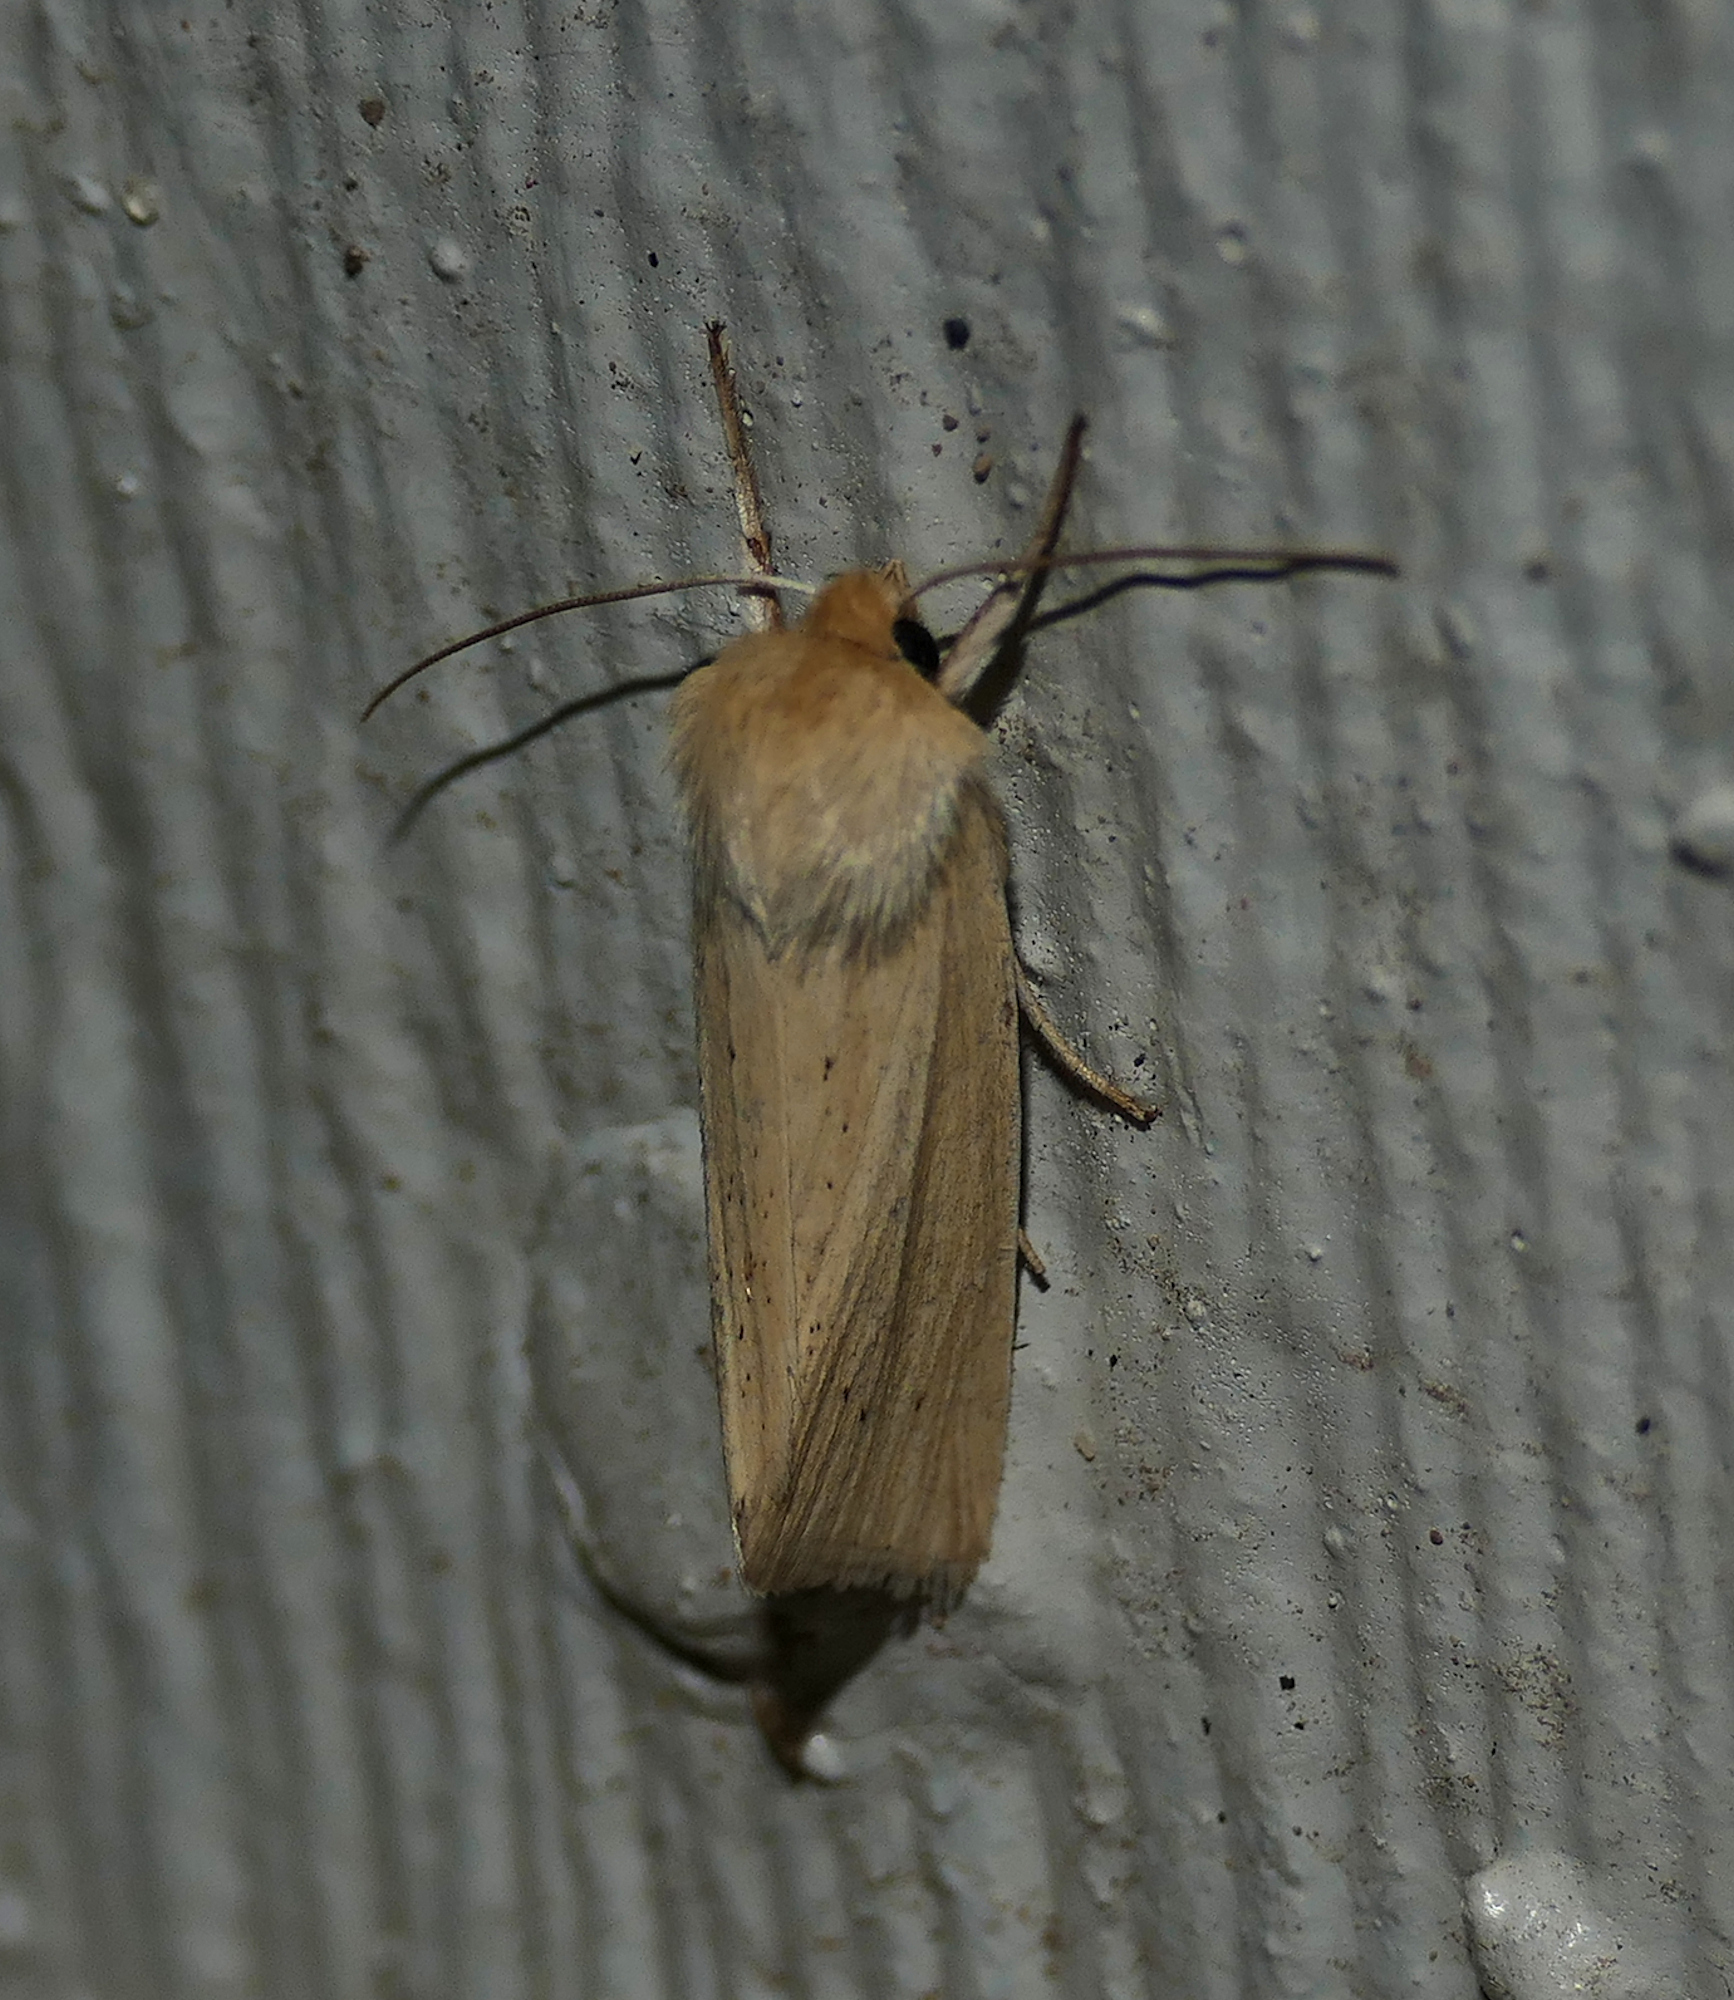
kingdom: Animalia
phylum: Arthropoda
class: Insecta
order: Lepidoptera
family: Noctuidae
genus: Neleucania
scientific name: Neleucania praegracilis
